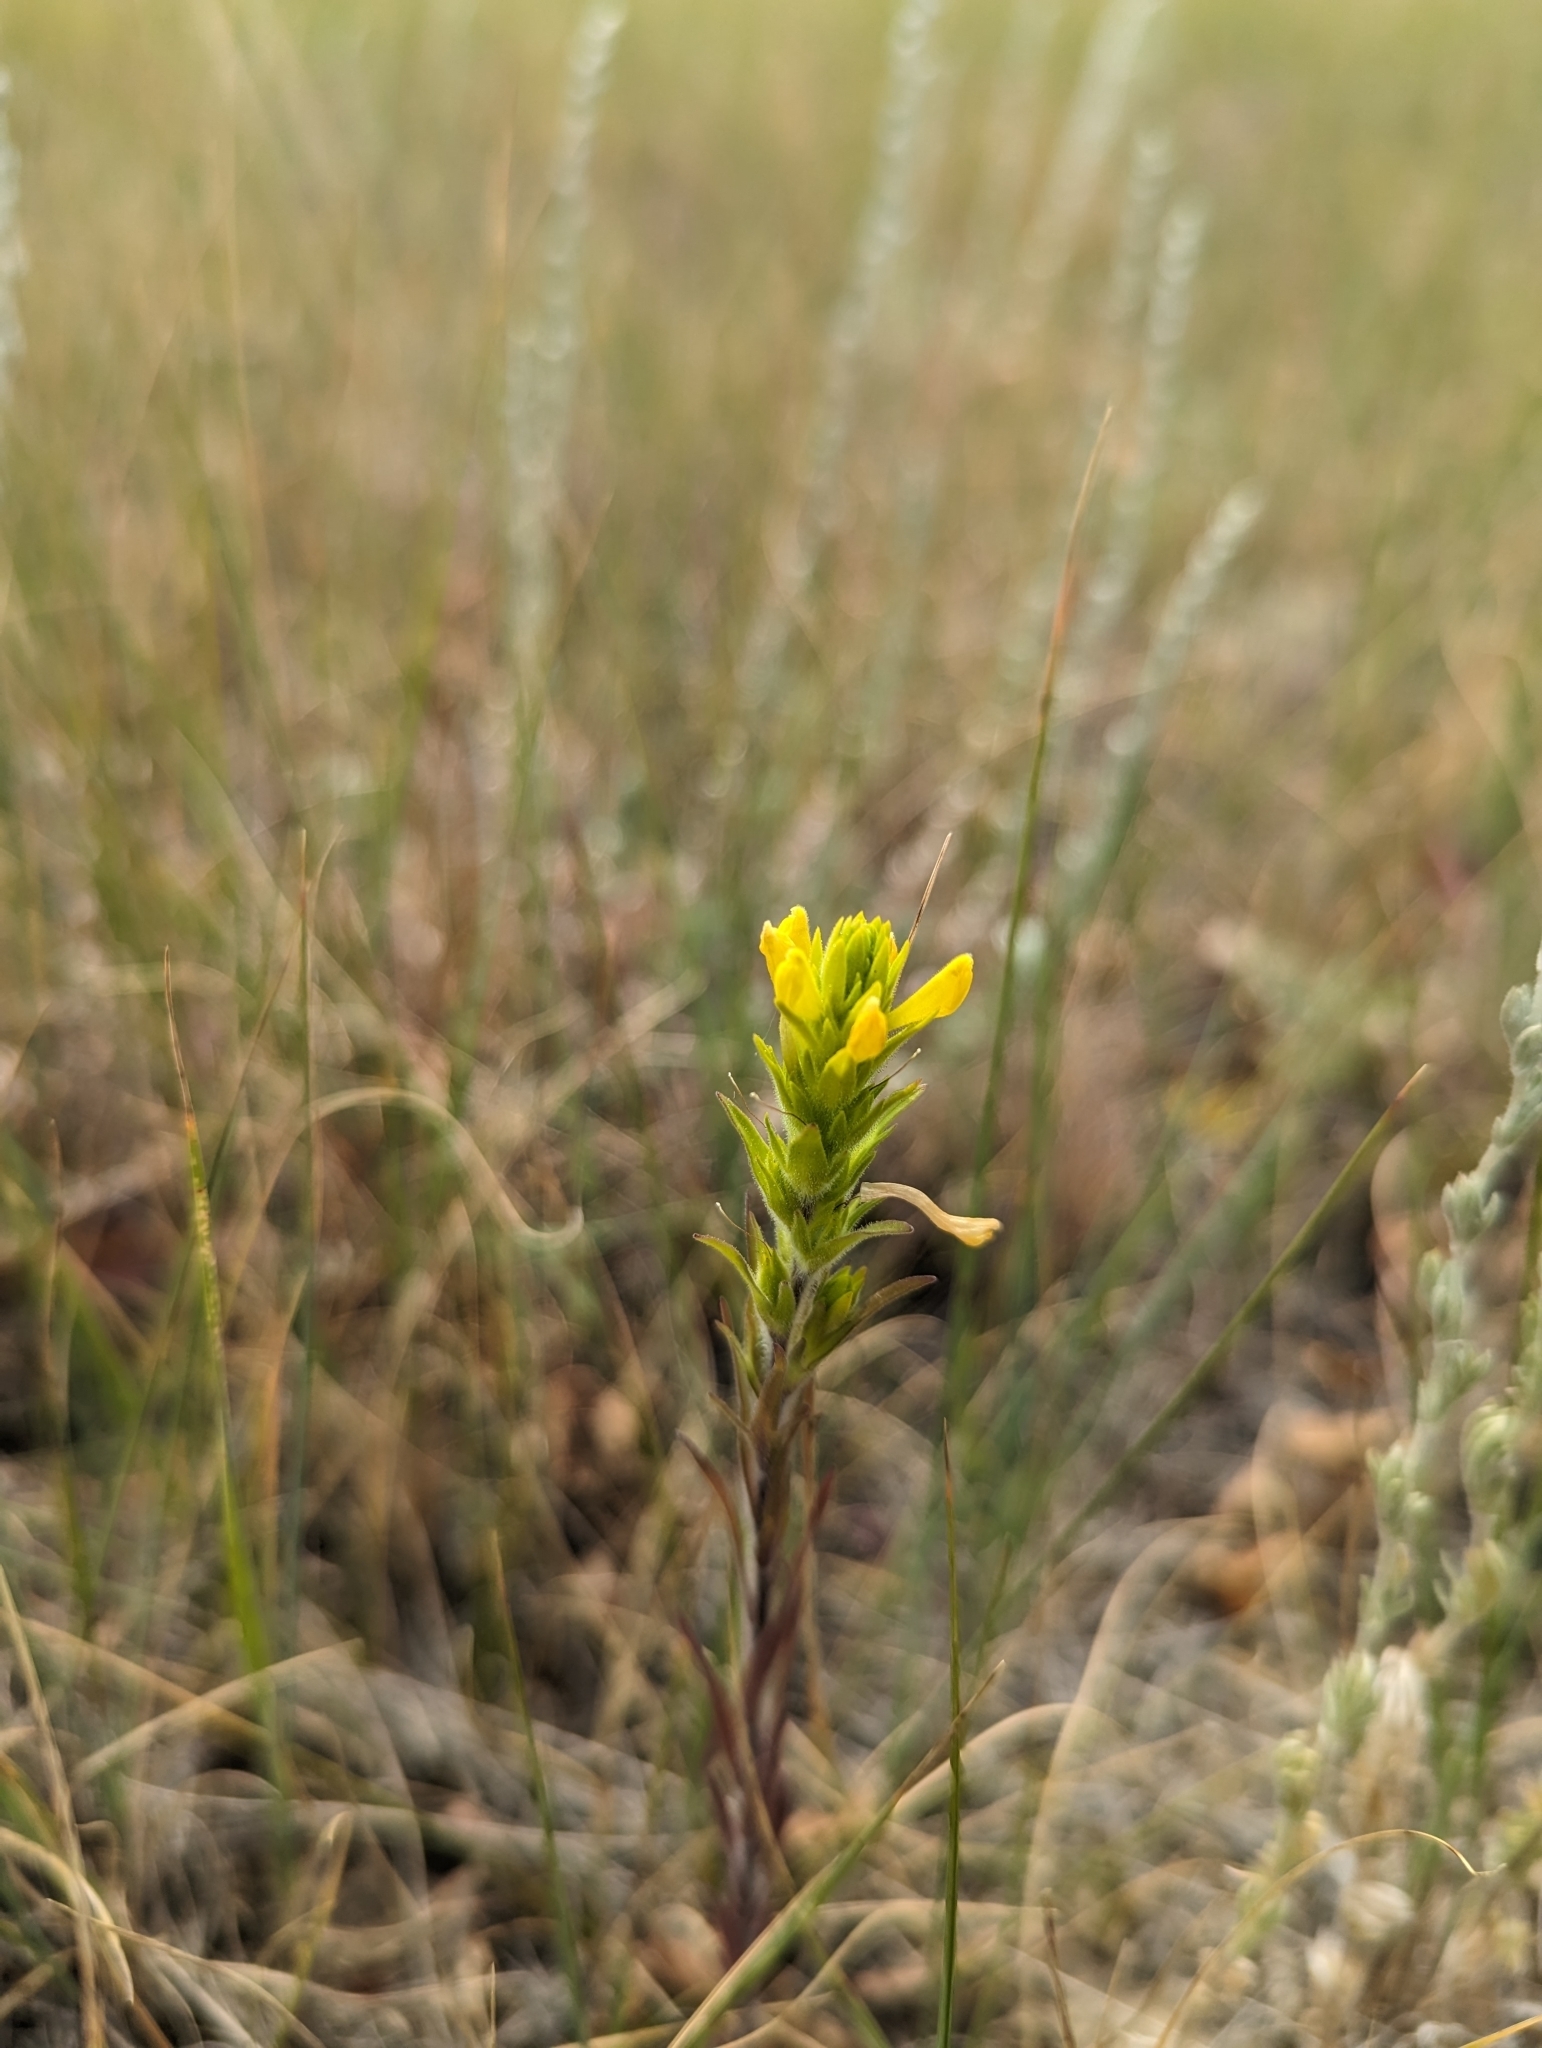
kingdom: Plantae
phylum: Tracheophyta
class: Magnoliopsida
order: Lamiales
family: Orobanchaceae
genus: Orthocarpus
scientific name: Orthocarpus luteus
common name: Golden-tongue owl's-clover
